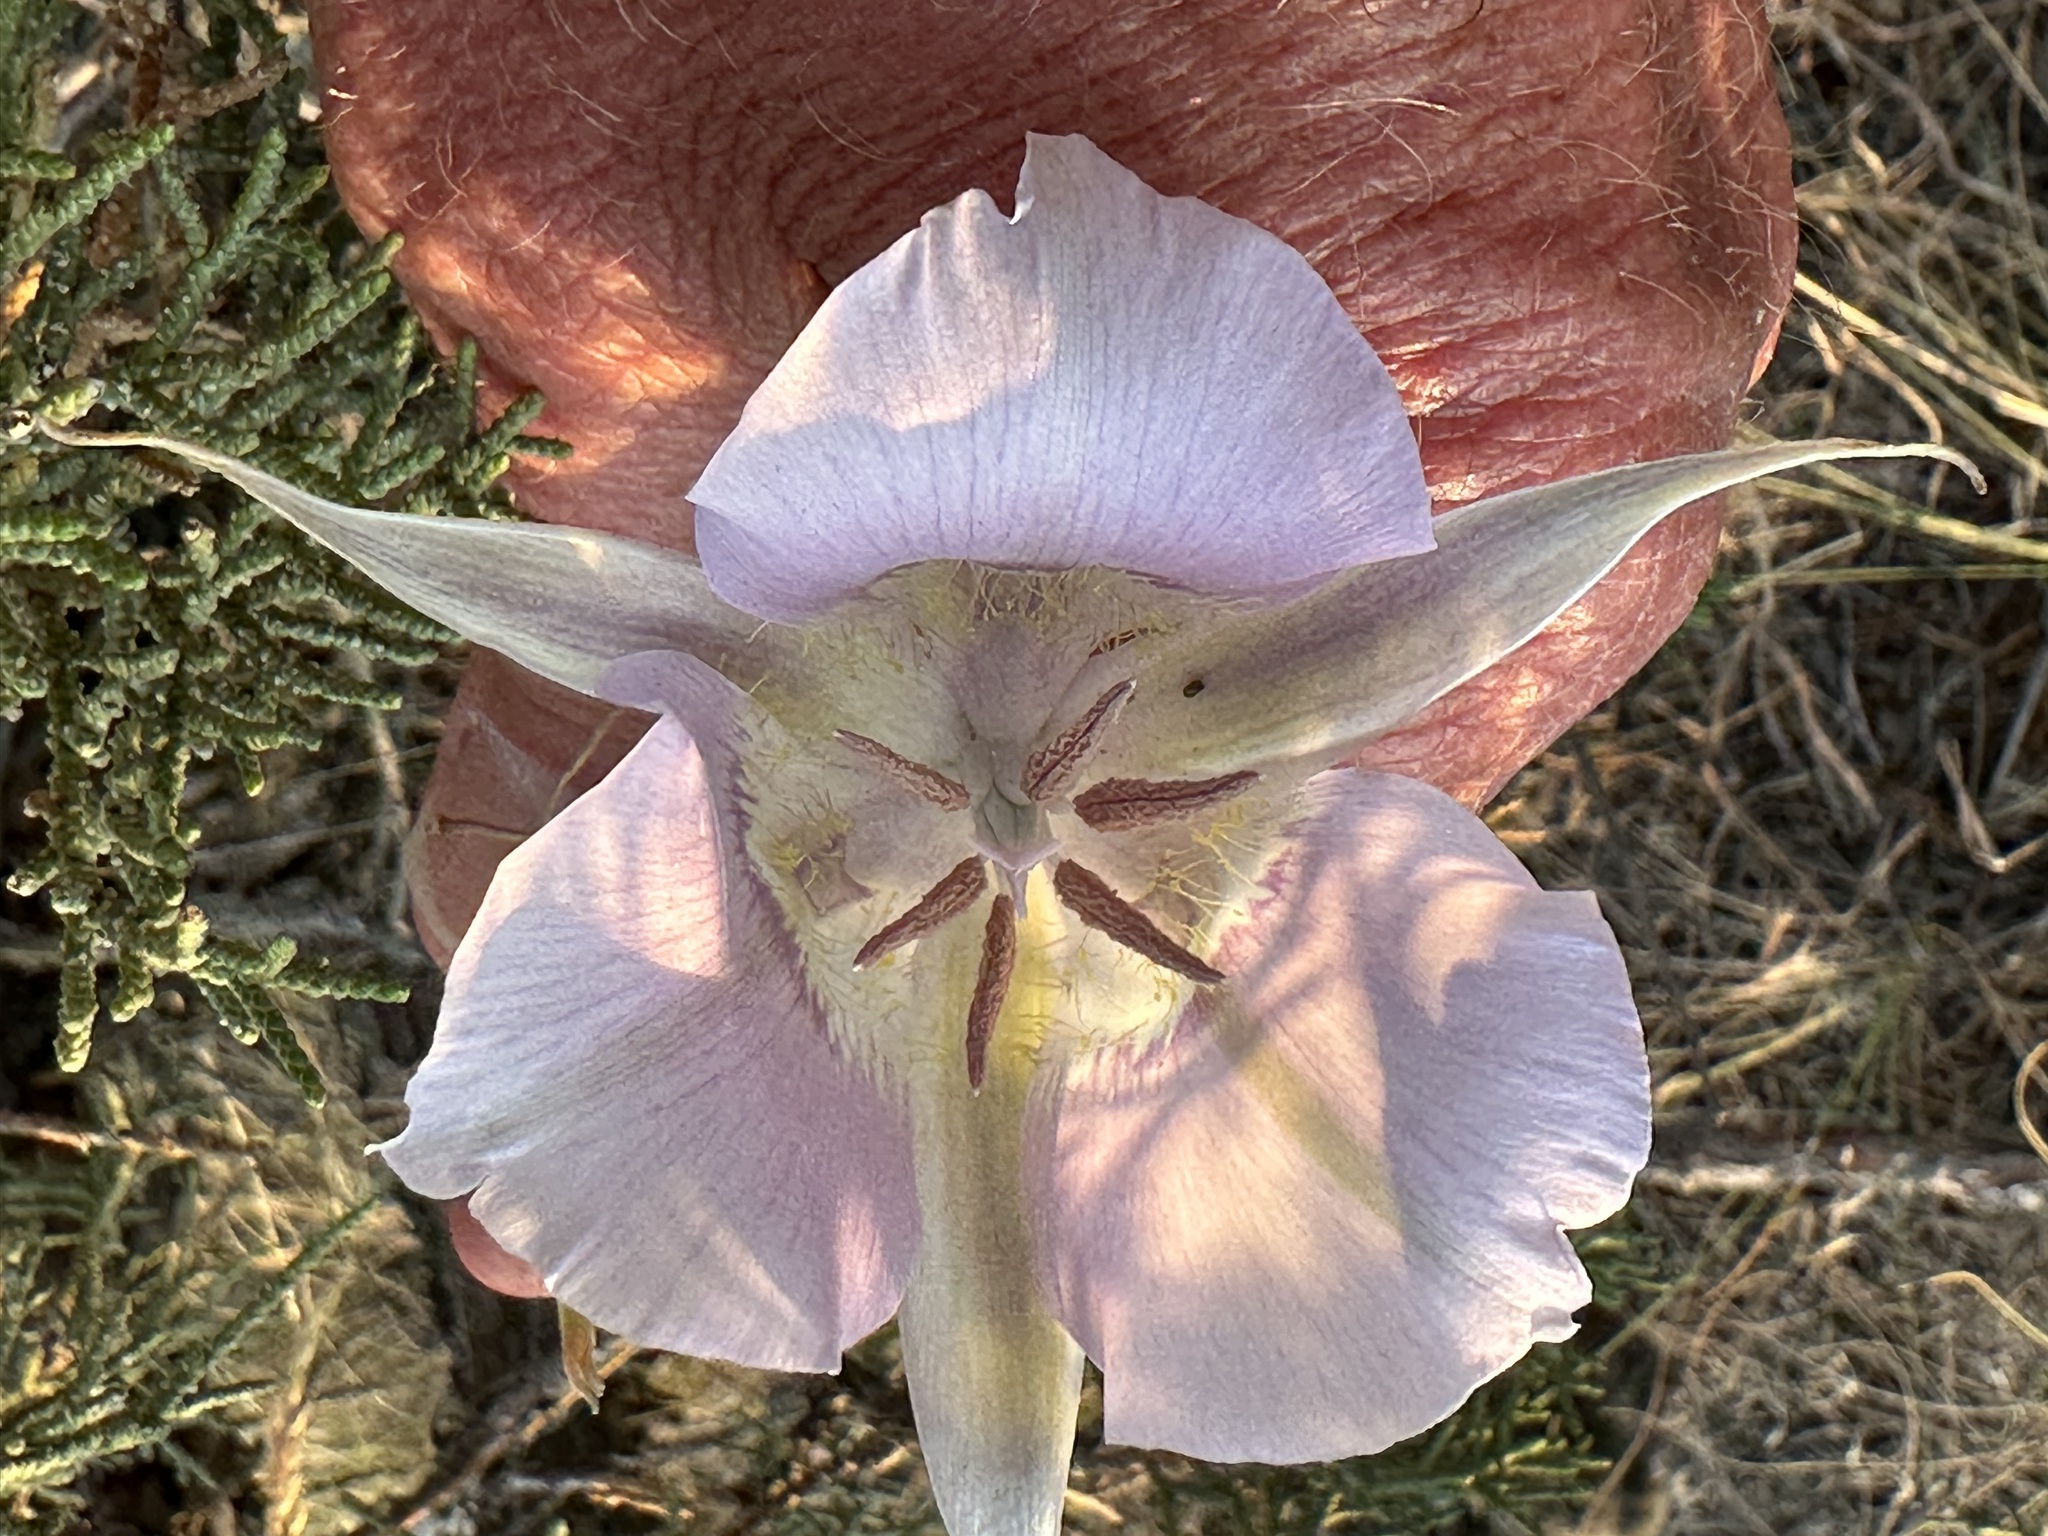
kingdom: Plantae
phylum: Tracheophyta
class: Liliopsida
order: Liliales
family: Liliaceae
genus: Calochortus
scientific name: Calochortus macrocarpus
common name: Green-band mariposa lily
